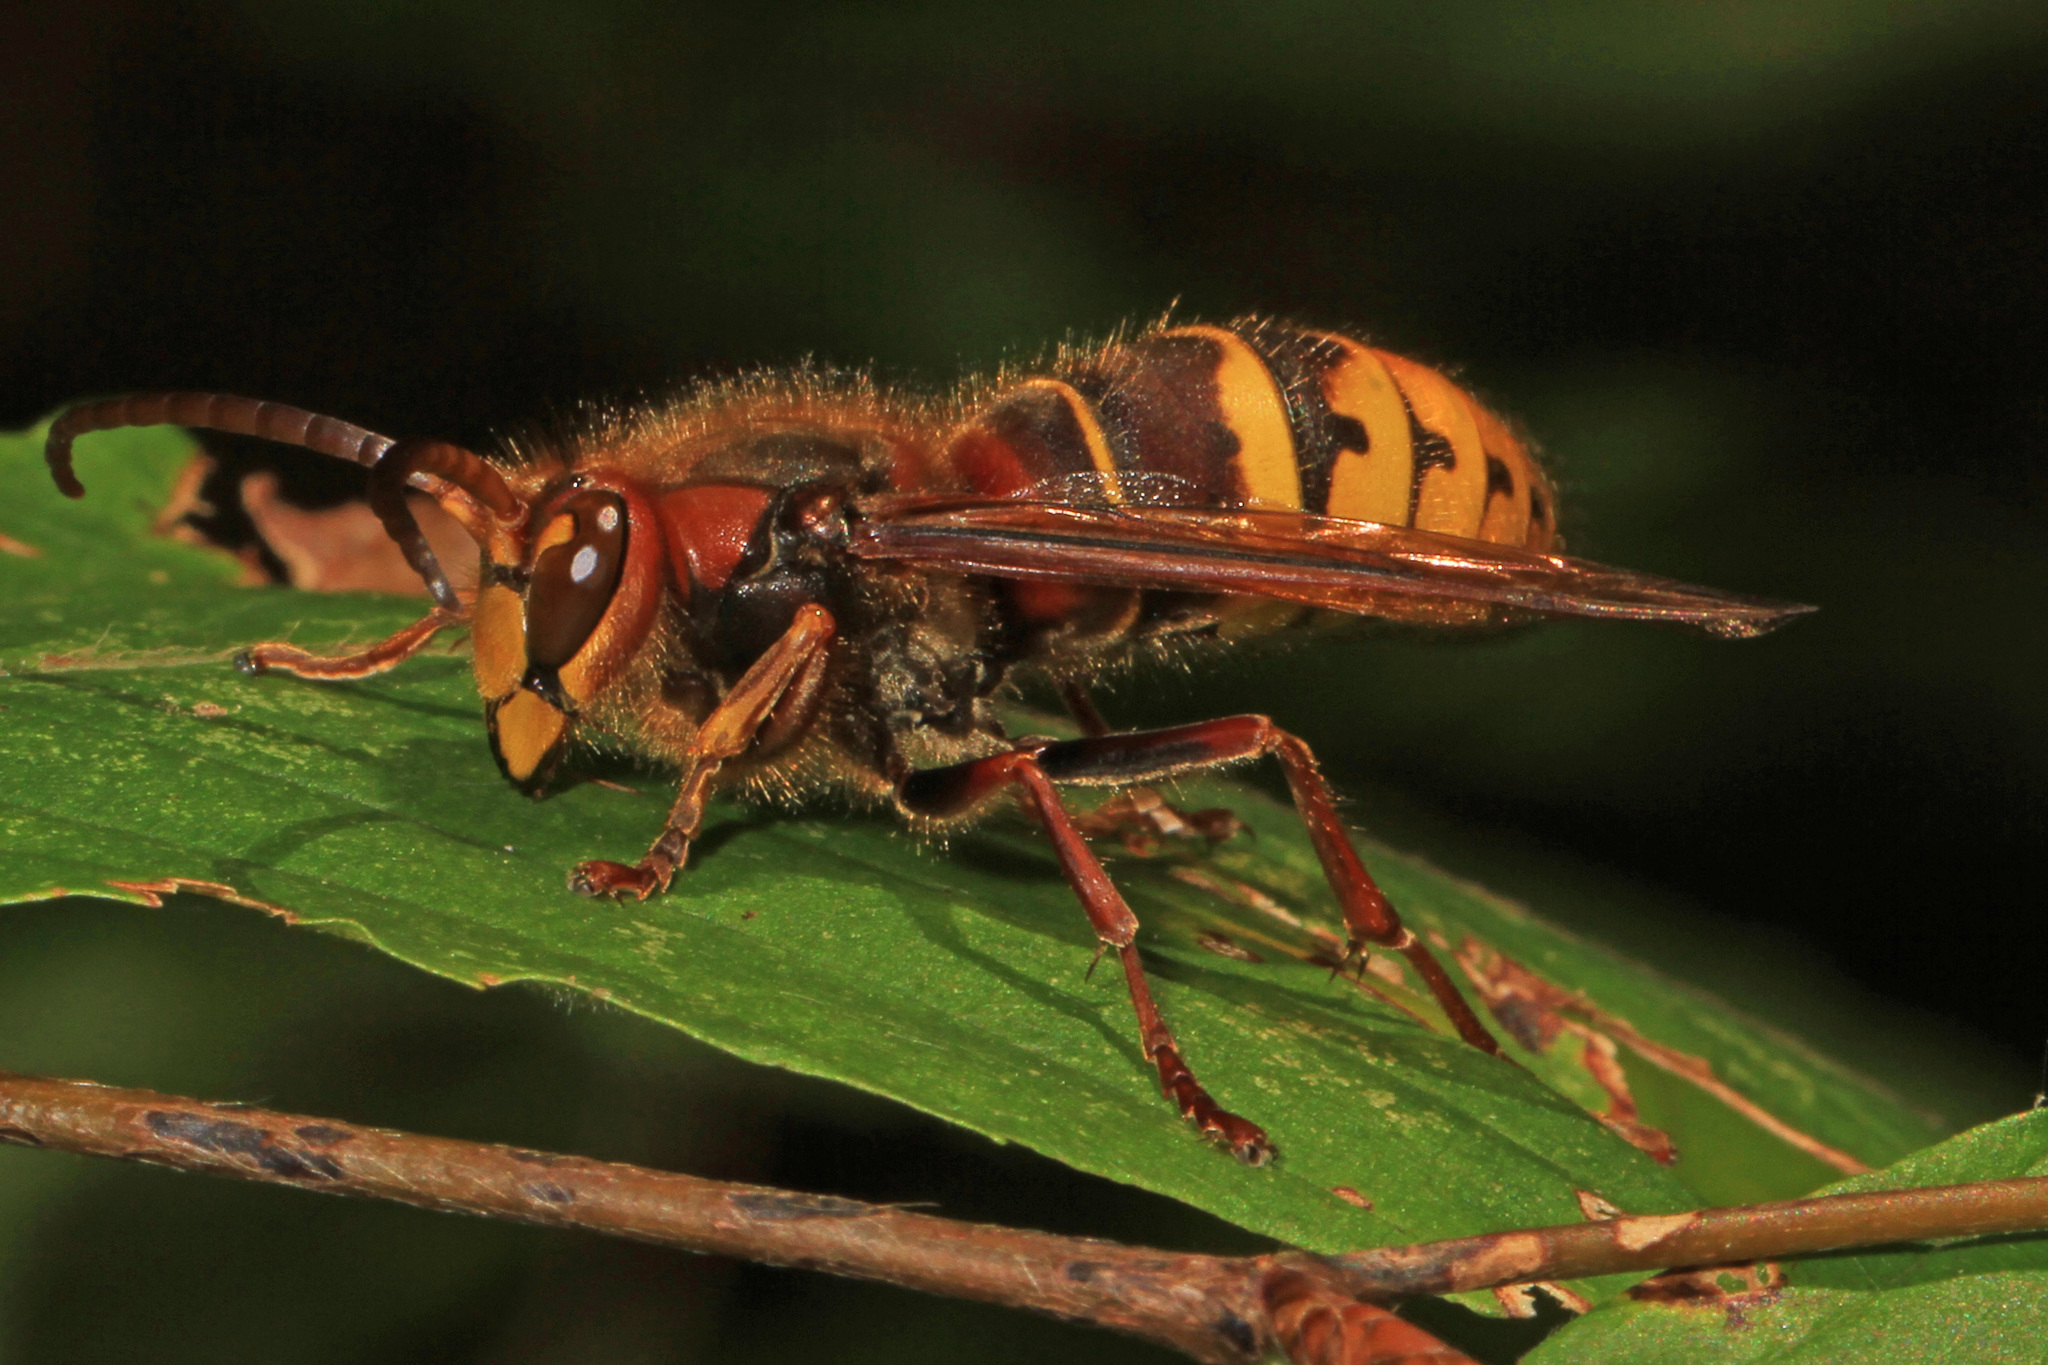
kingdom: Animalia
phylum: Arthropoda
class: Insecta
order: Hymenoptera
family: Vespidae
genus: Vespa
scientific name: Vespa crabro
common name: Hornet
